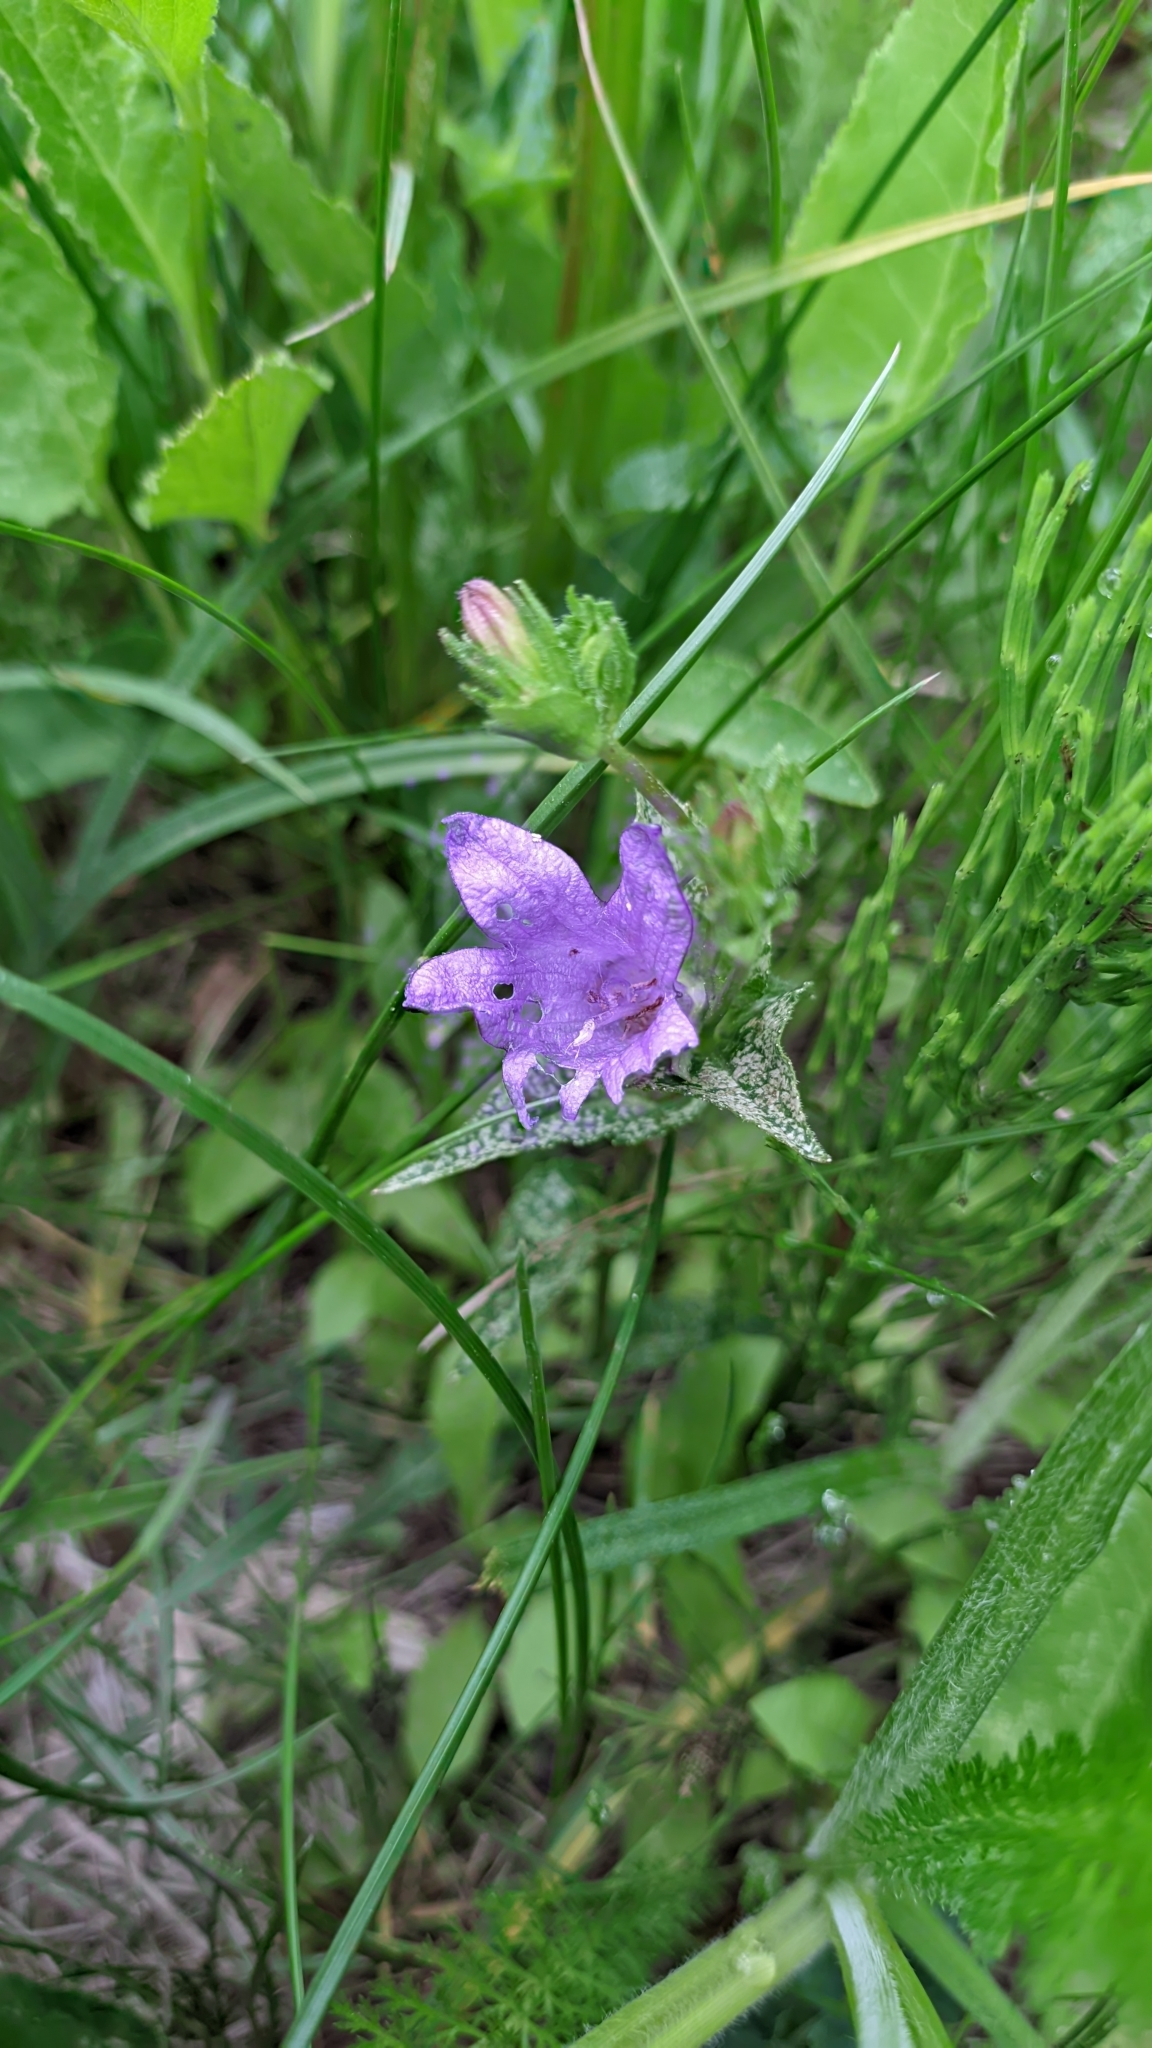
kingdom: Plantae
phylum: Tracheophyta
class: Magnoliopsida
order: Asterales
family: Campanulaceae
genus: Campanula
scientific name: Campanula glomerata
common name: Clustered bellflower
